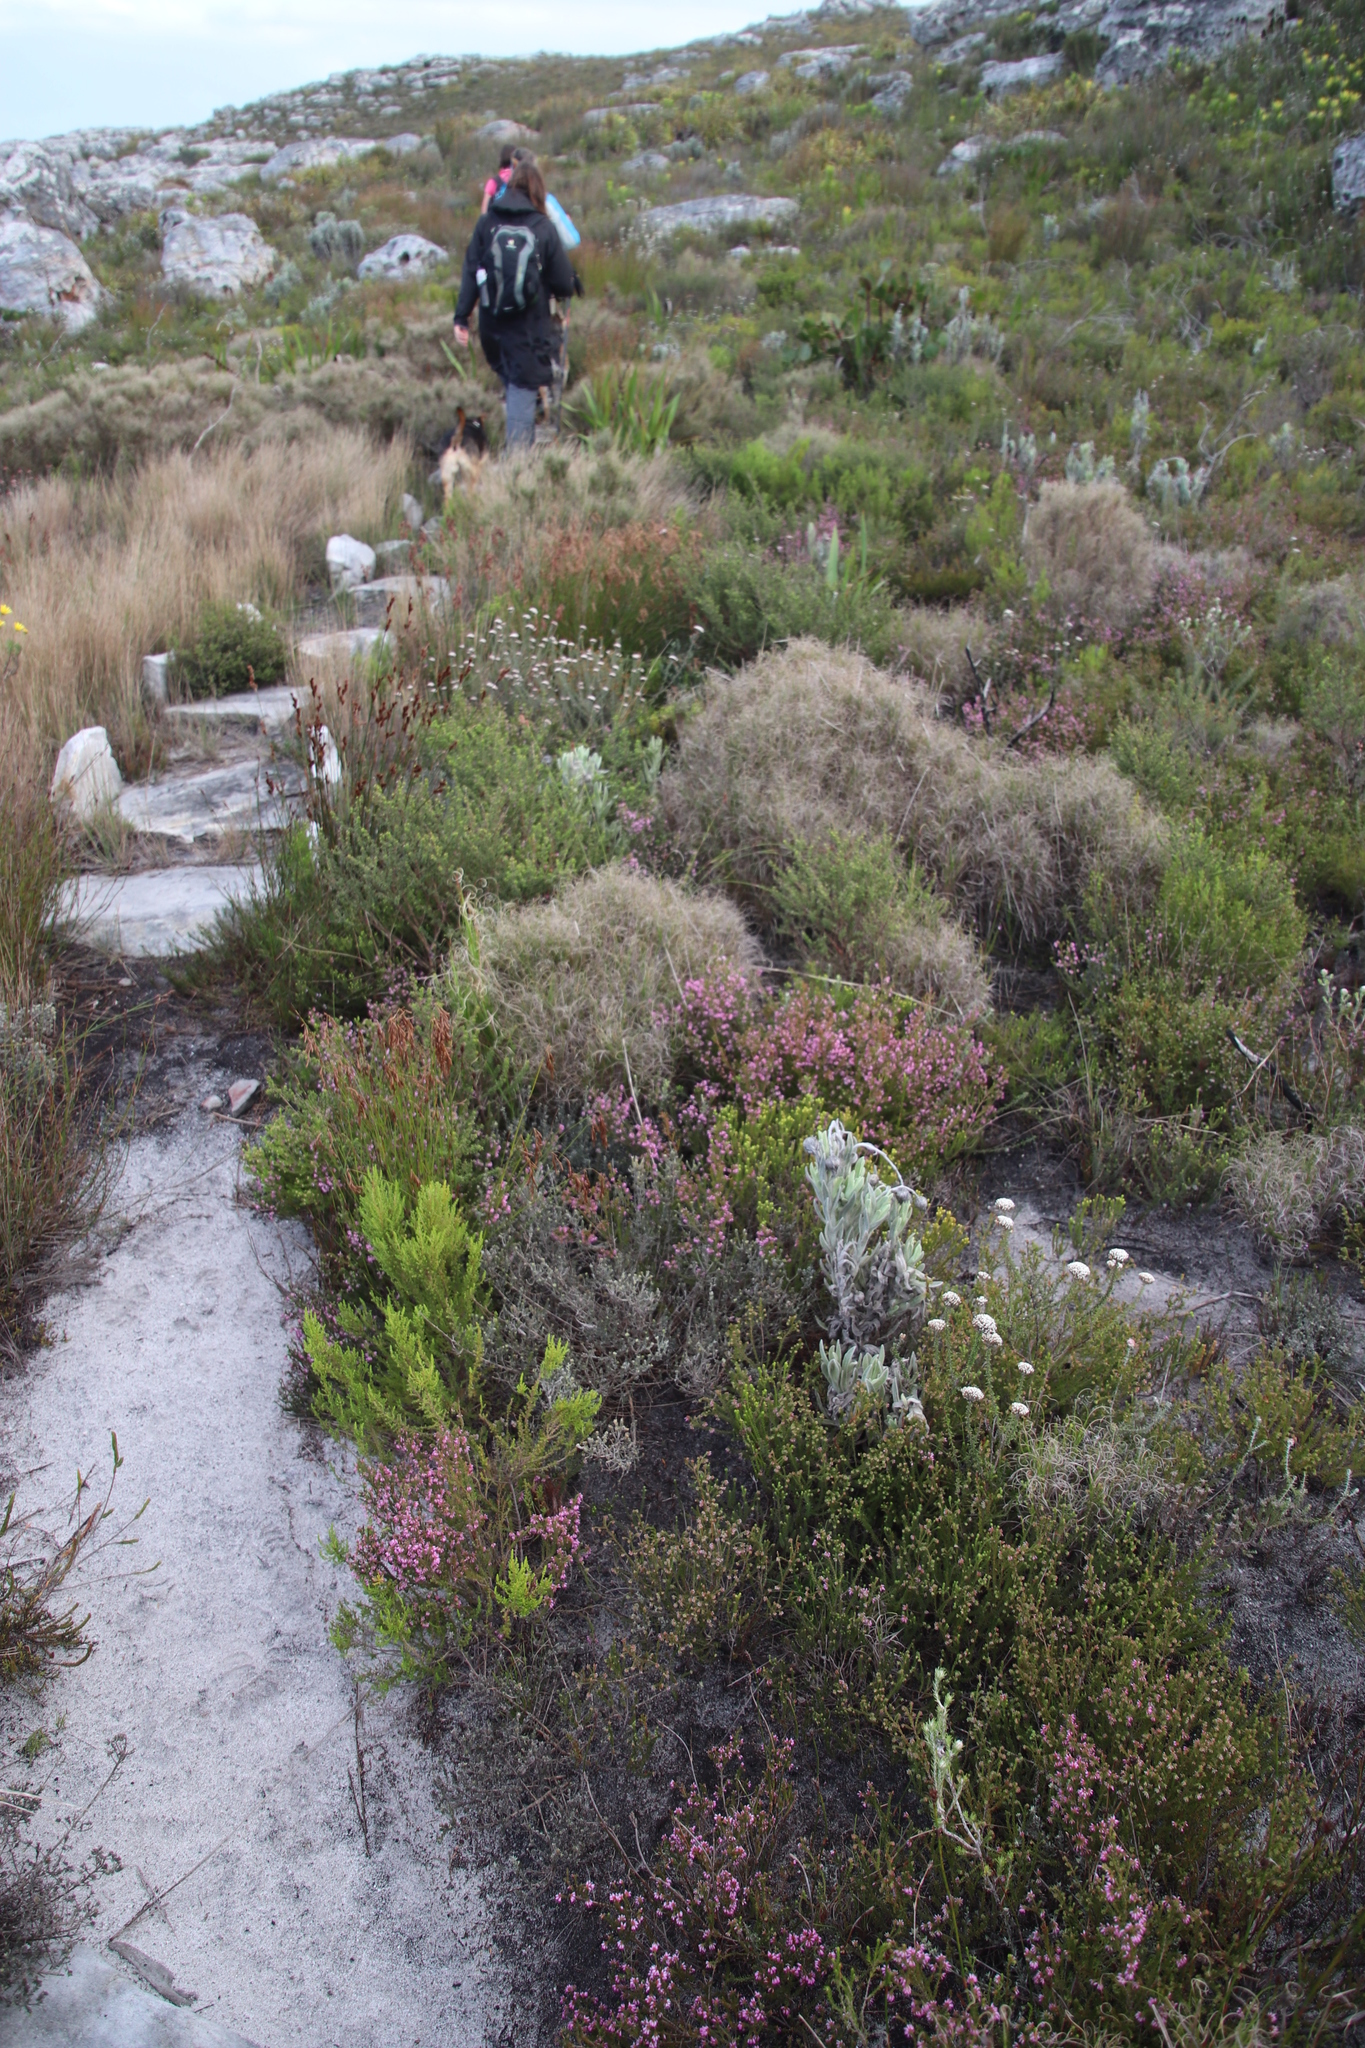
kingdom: Plantae
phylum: Tracheophyta
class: Liliopsida
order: Poales
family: Poaceae
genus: Pseudopentameris
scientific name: Pseudopentameris macrantha
